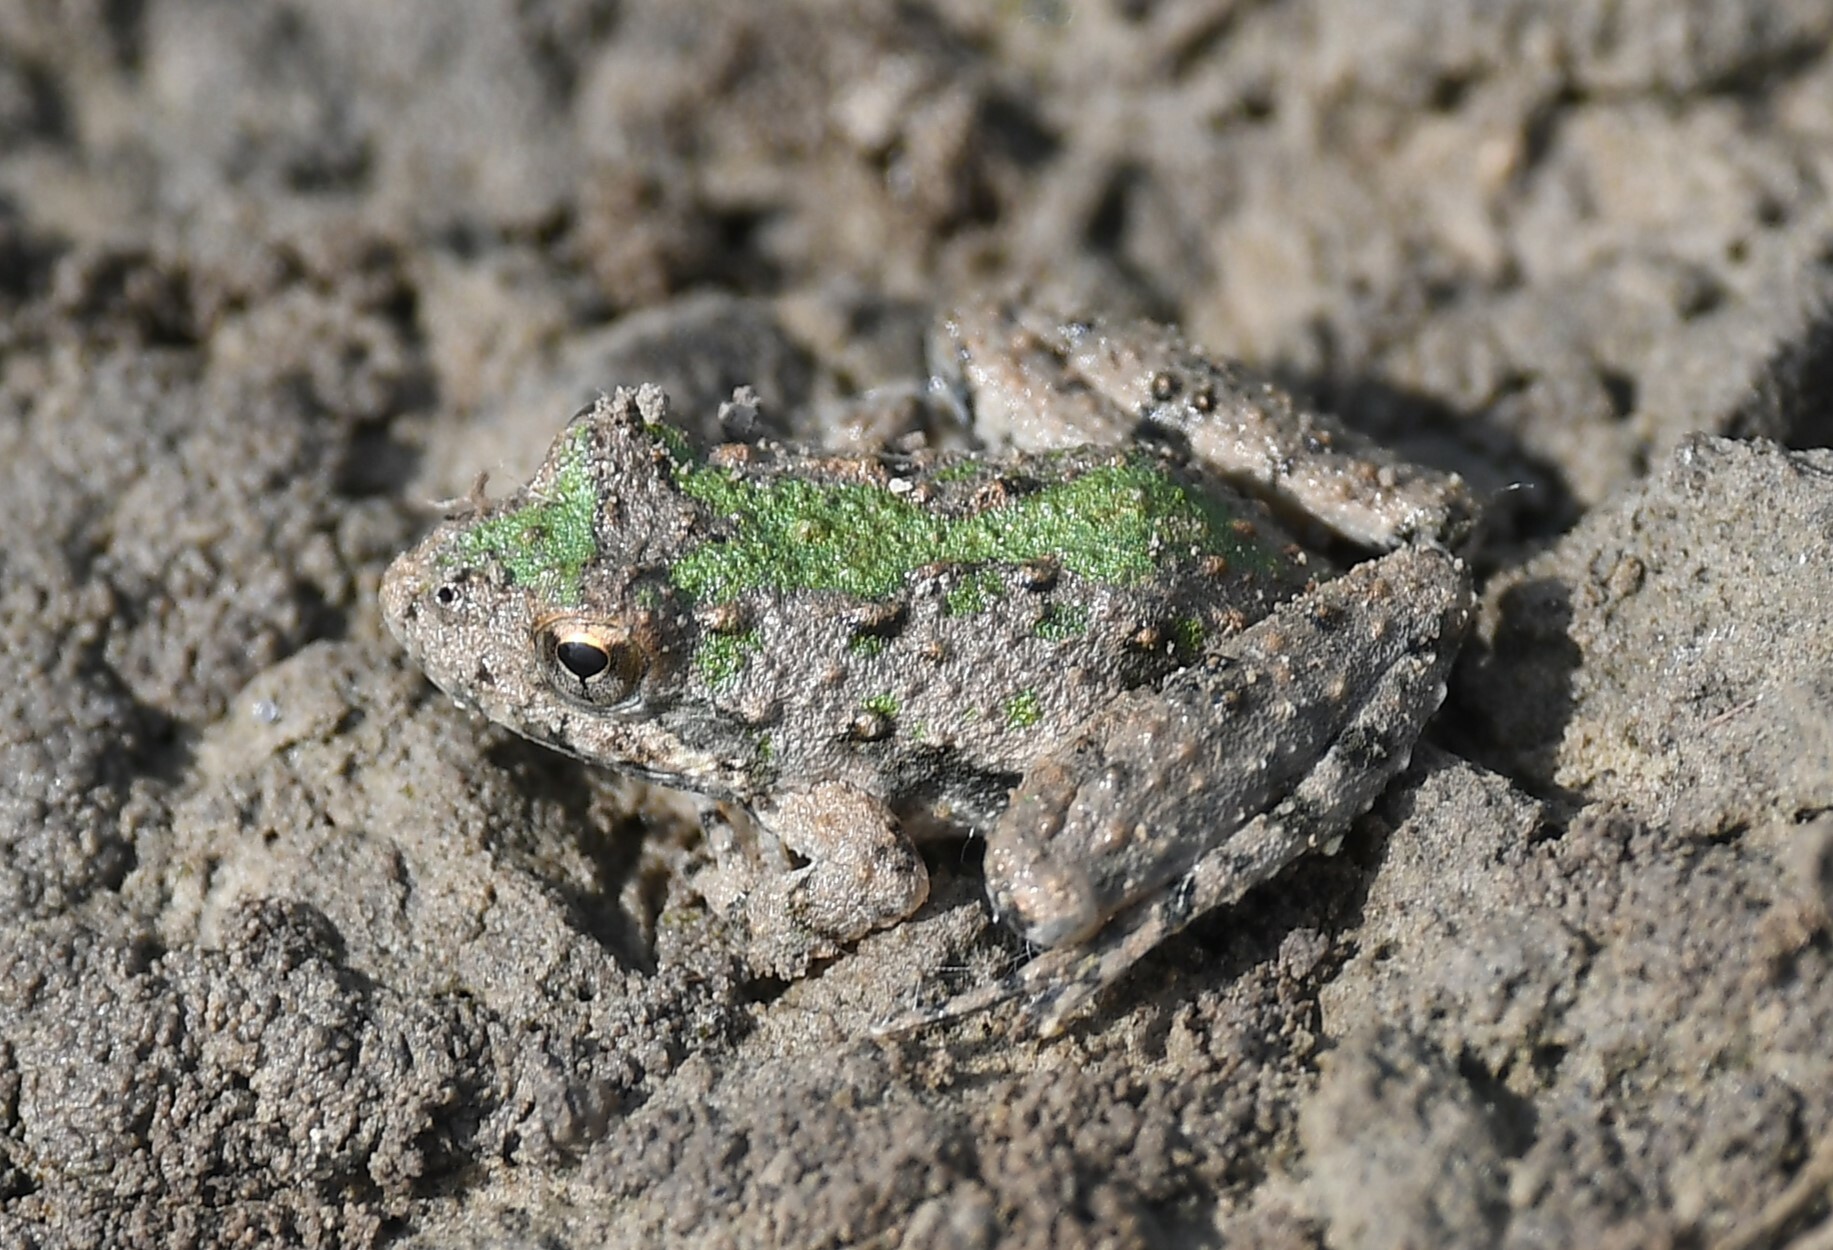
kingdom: Animalia
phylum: Chordata
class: Amphibia
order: Anura
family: Hylidae
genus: Acris
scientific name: Acris blanchardi
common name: Blanchard's cricket frog
